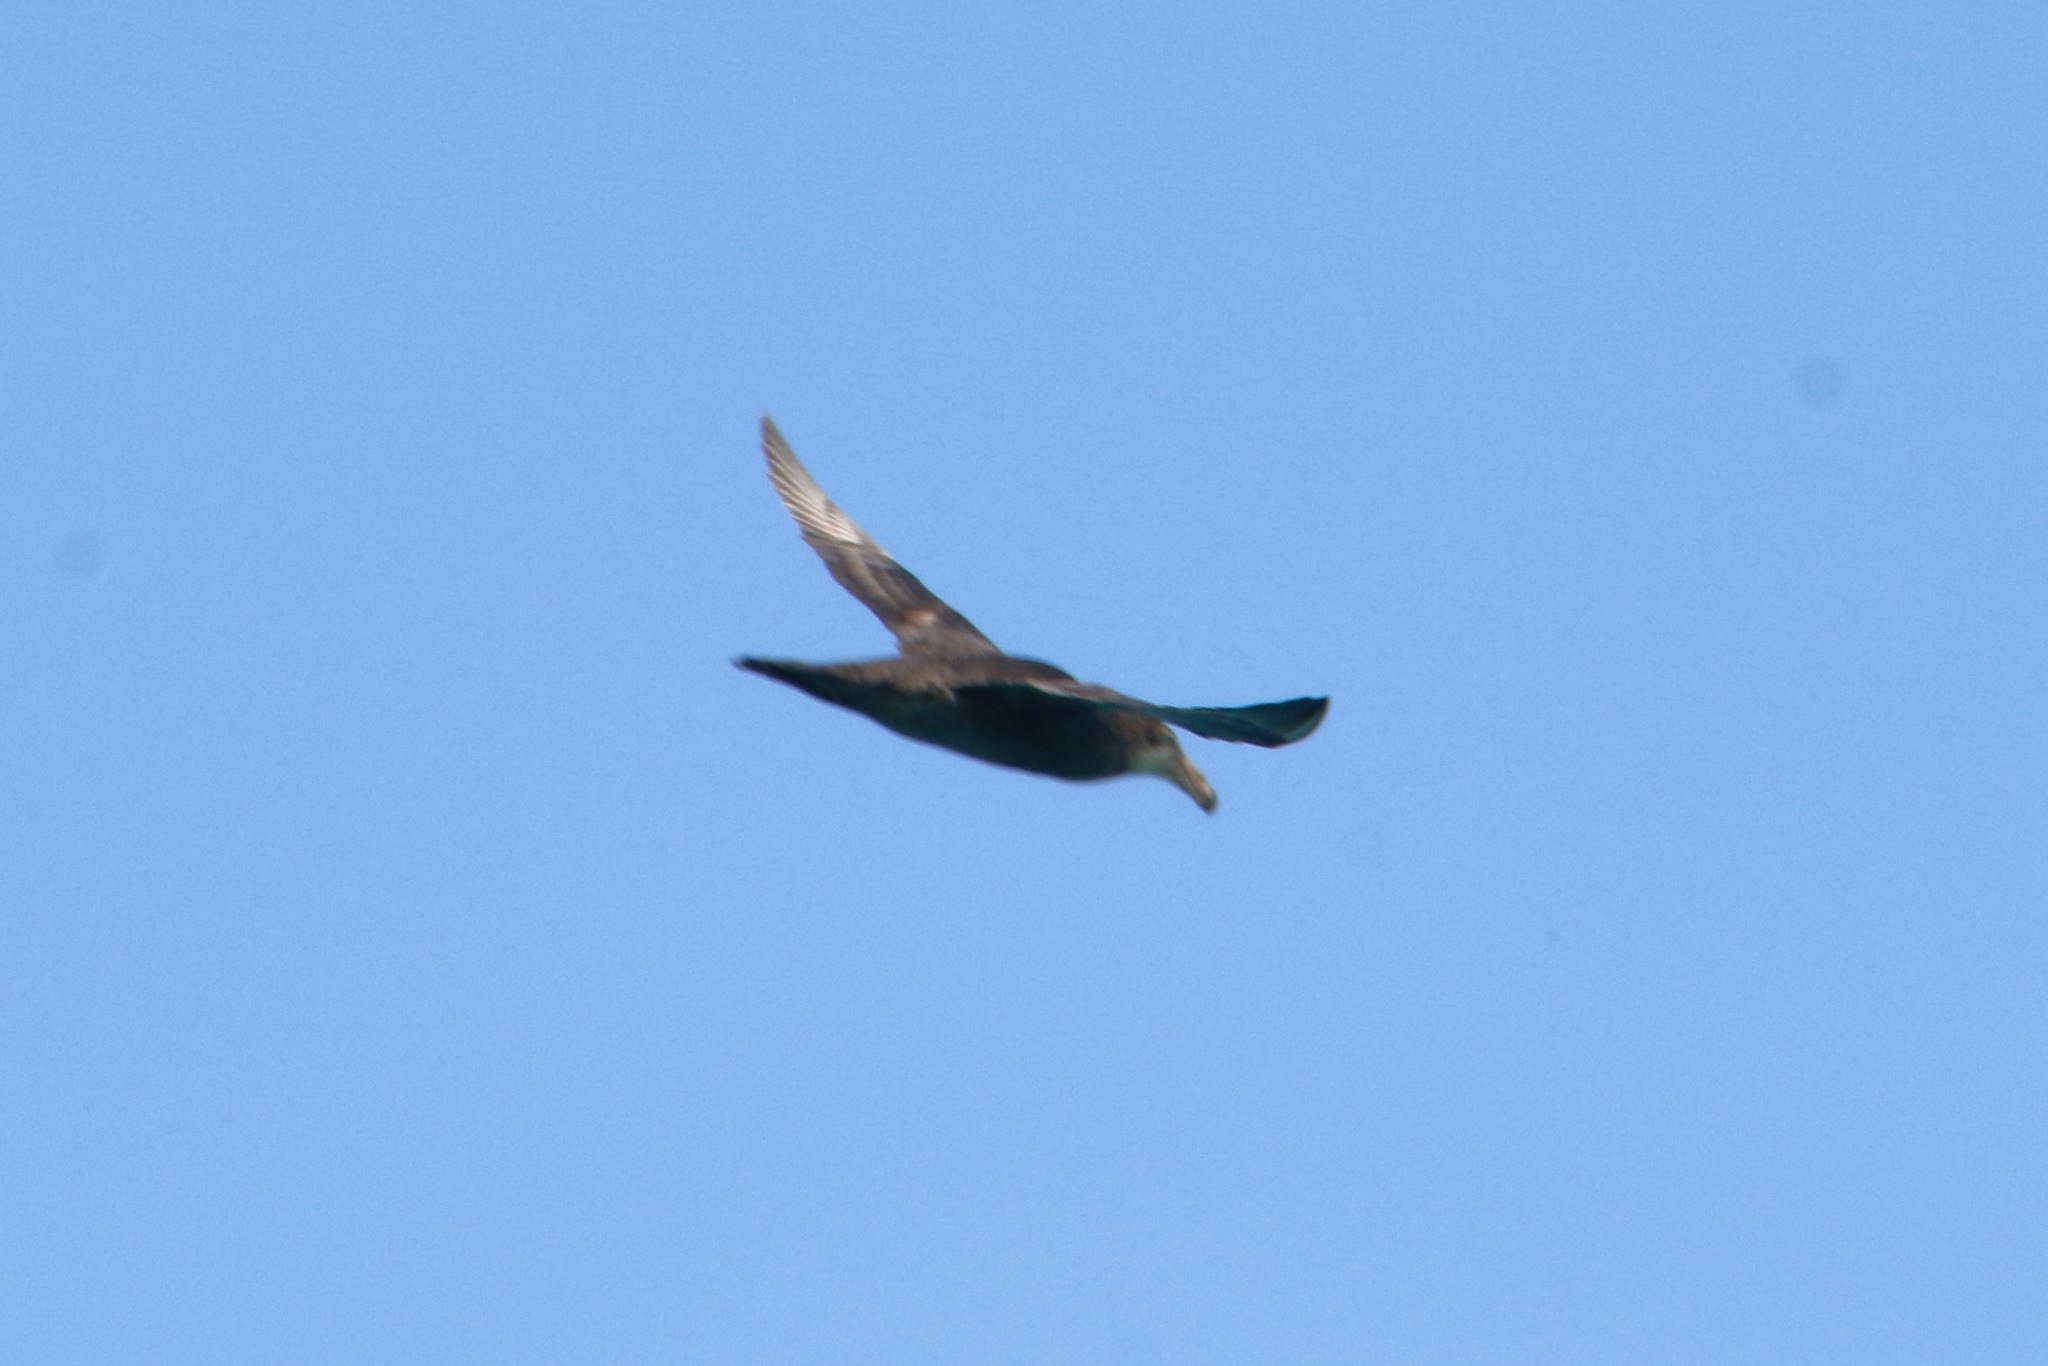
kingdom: Animalia
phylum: Chordata
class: Aves
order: Procellariiformes
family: Procellariidae
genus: Macronectes
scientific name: Macronectes halli
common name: Northern giant petrel
